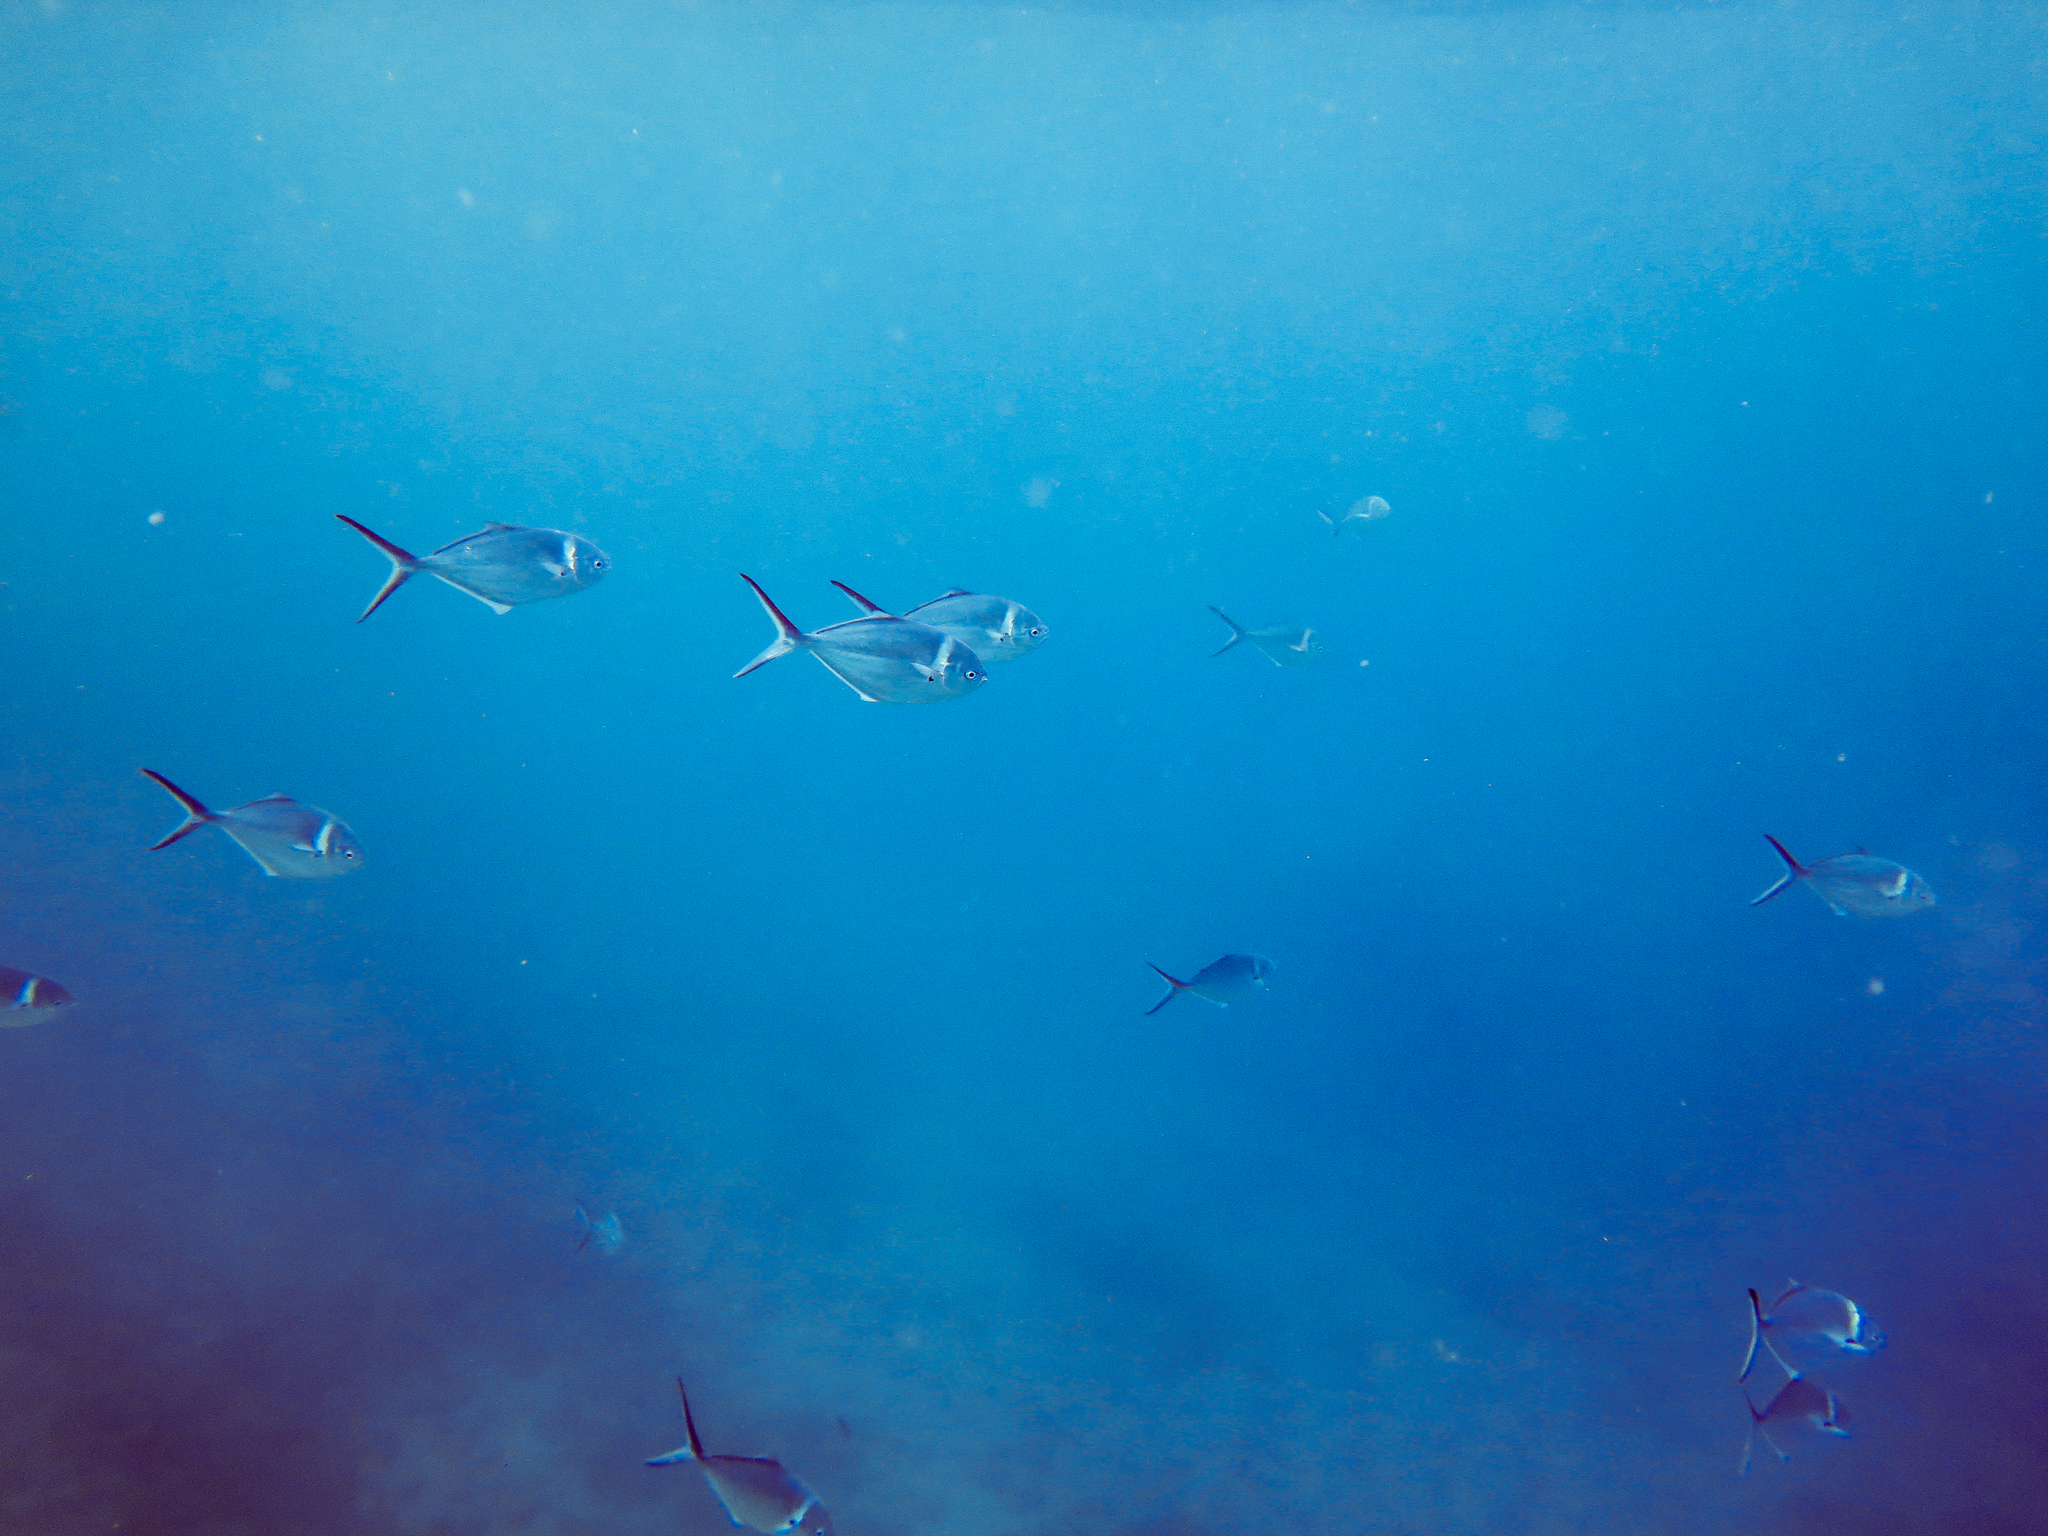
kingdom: Animalia
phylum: Chordata
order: Perciformes
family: Carangidae
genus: Trachinotus
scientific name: Trachinotus stilbe
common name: Steel pompano
